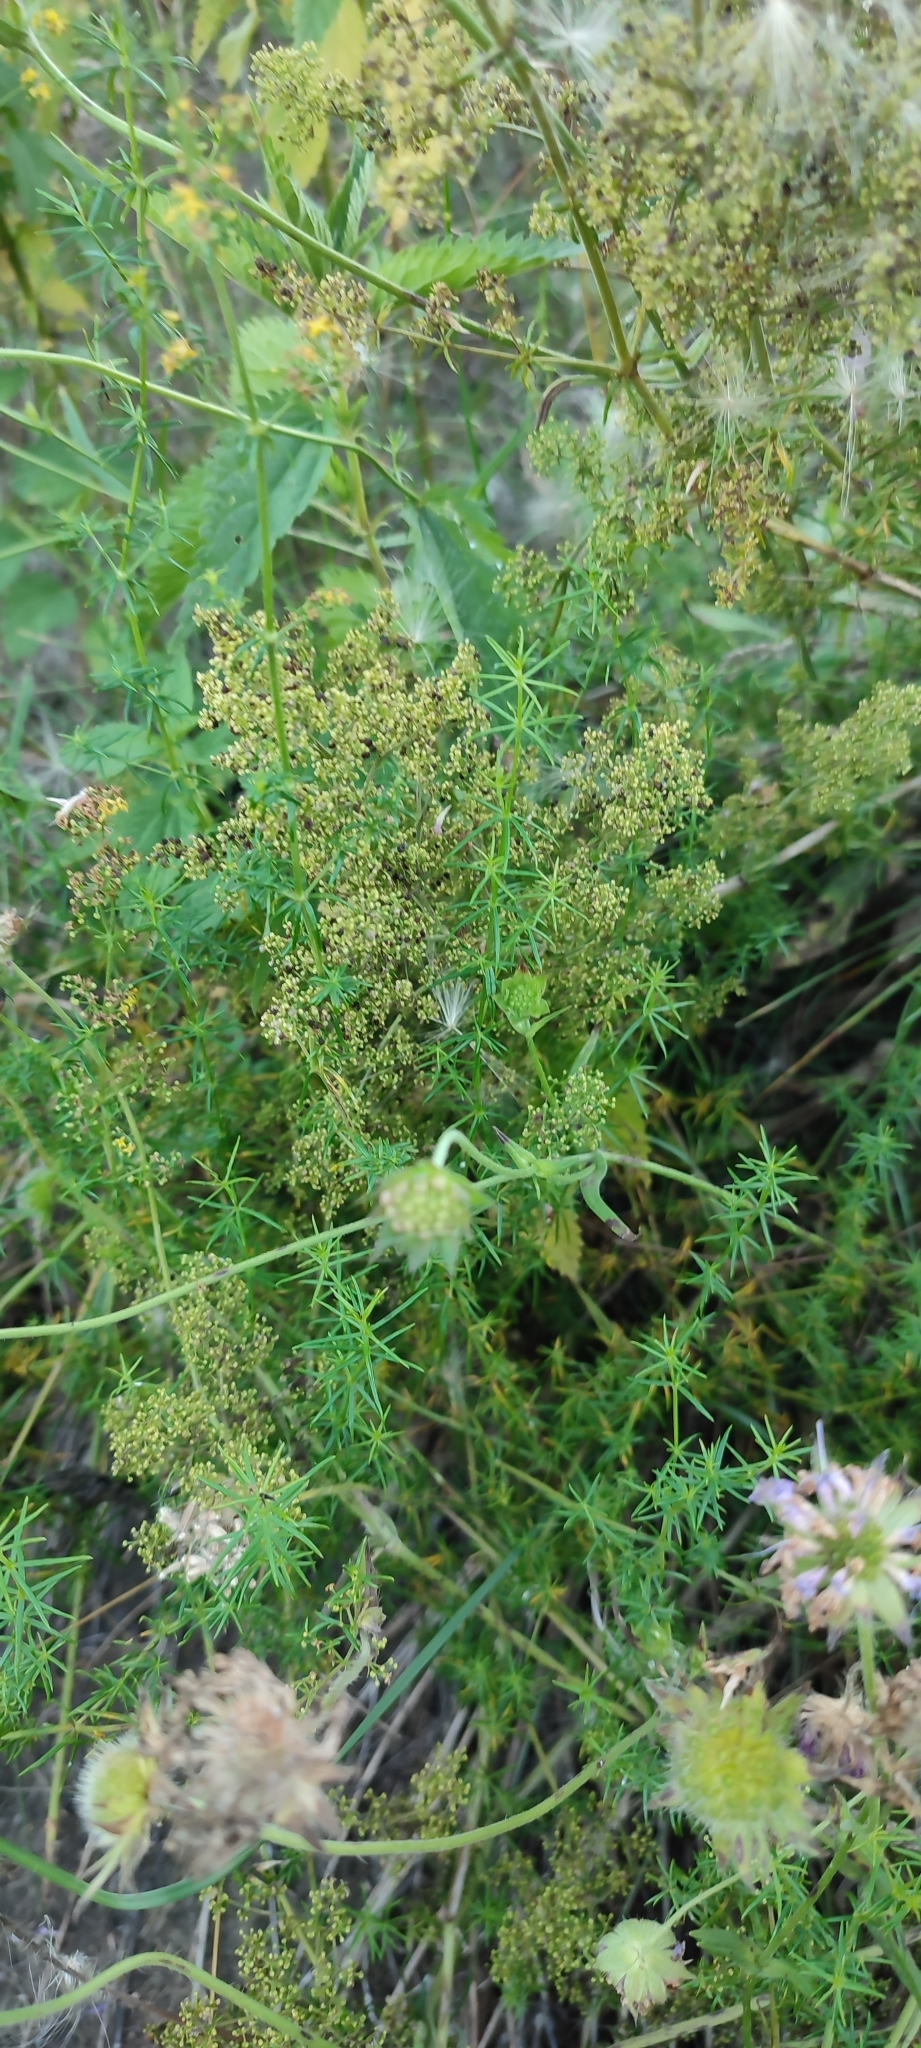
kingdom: Plantae
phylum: Tracheophyta
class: Magnoliopsida
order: Gentianales
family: Rubiaceae
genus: Galium
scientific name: Galium verum
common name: Lady's bedstraw
